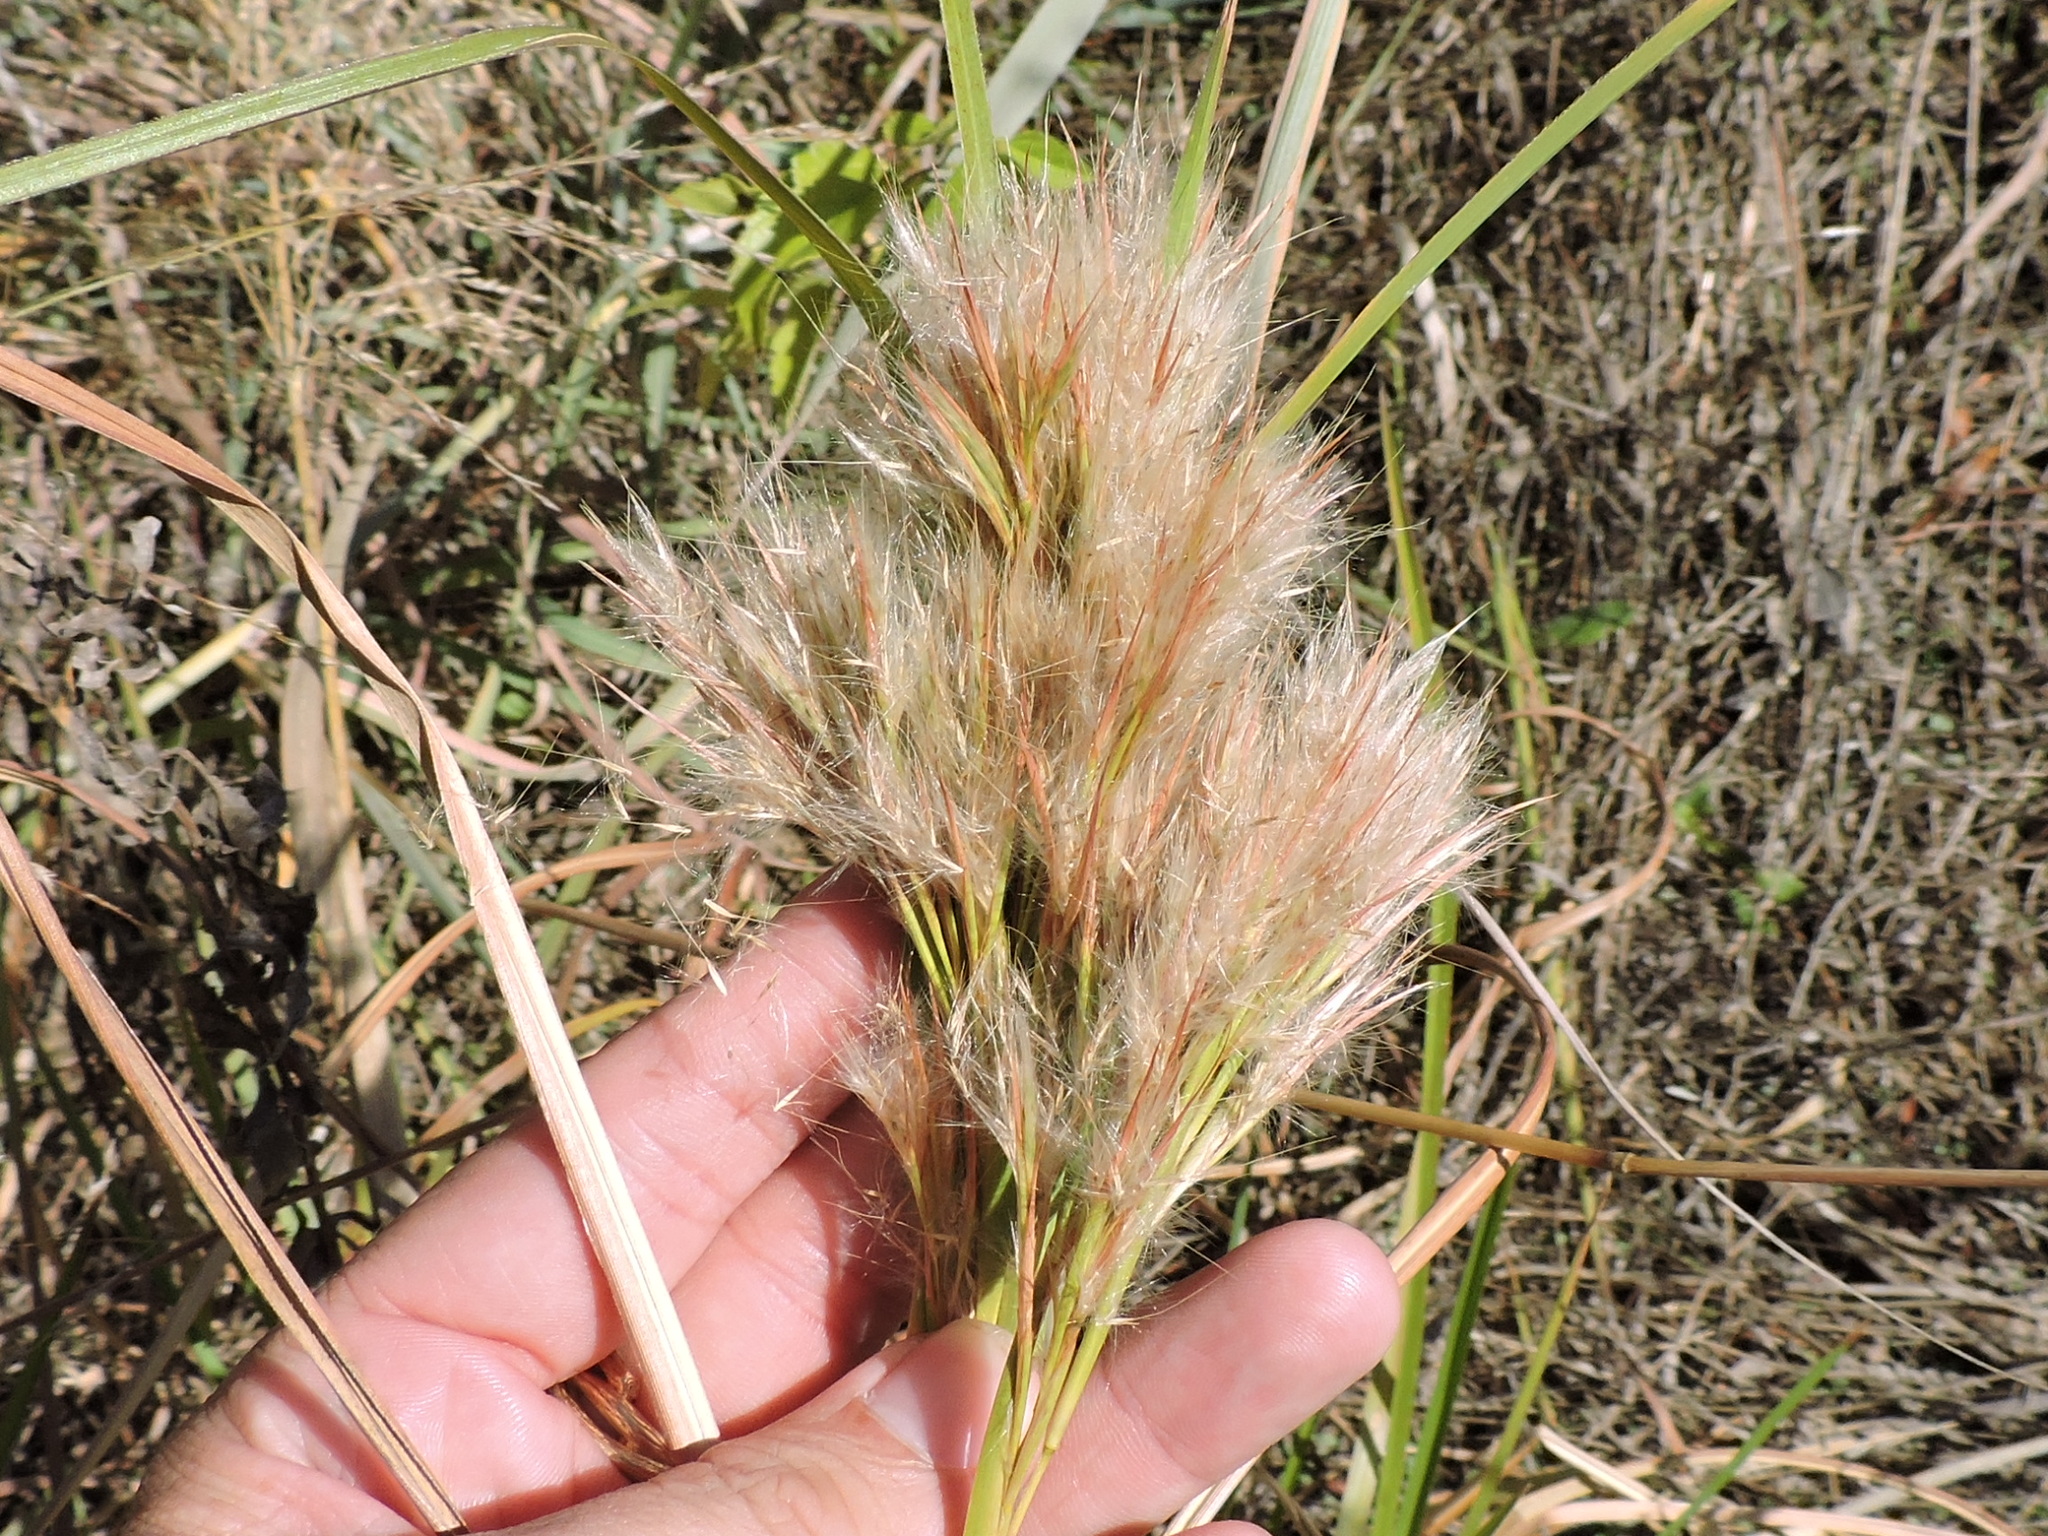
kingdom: Plantae
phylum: Tracheophyta
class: Liliopsida
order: Poales
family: Poaceae
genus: Andropogon
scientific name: Andropogon tenuispatheus
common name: Bushy bluestem
